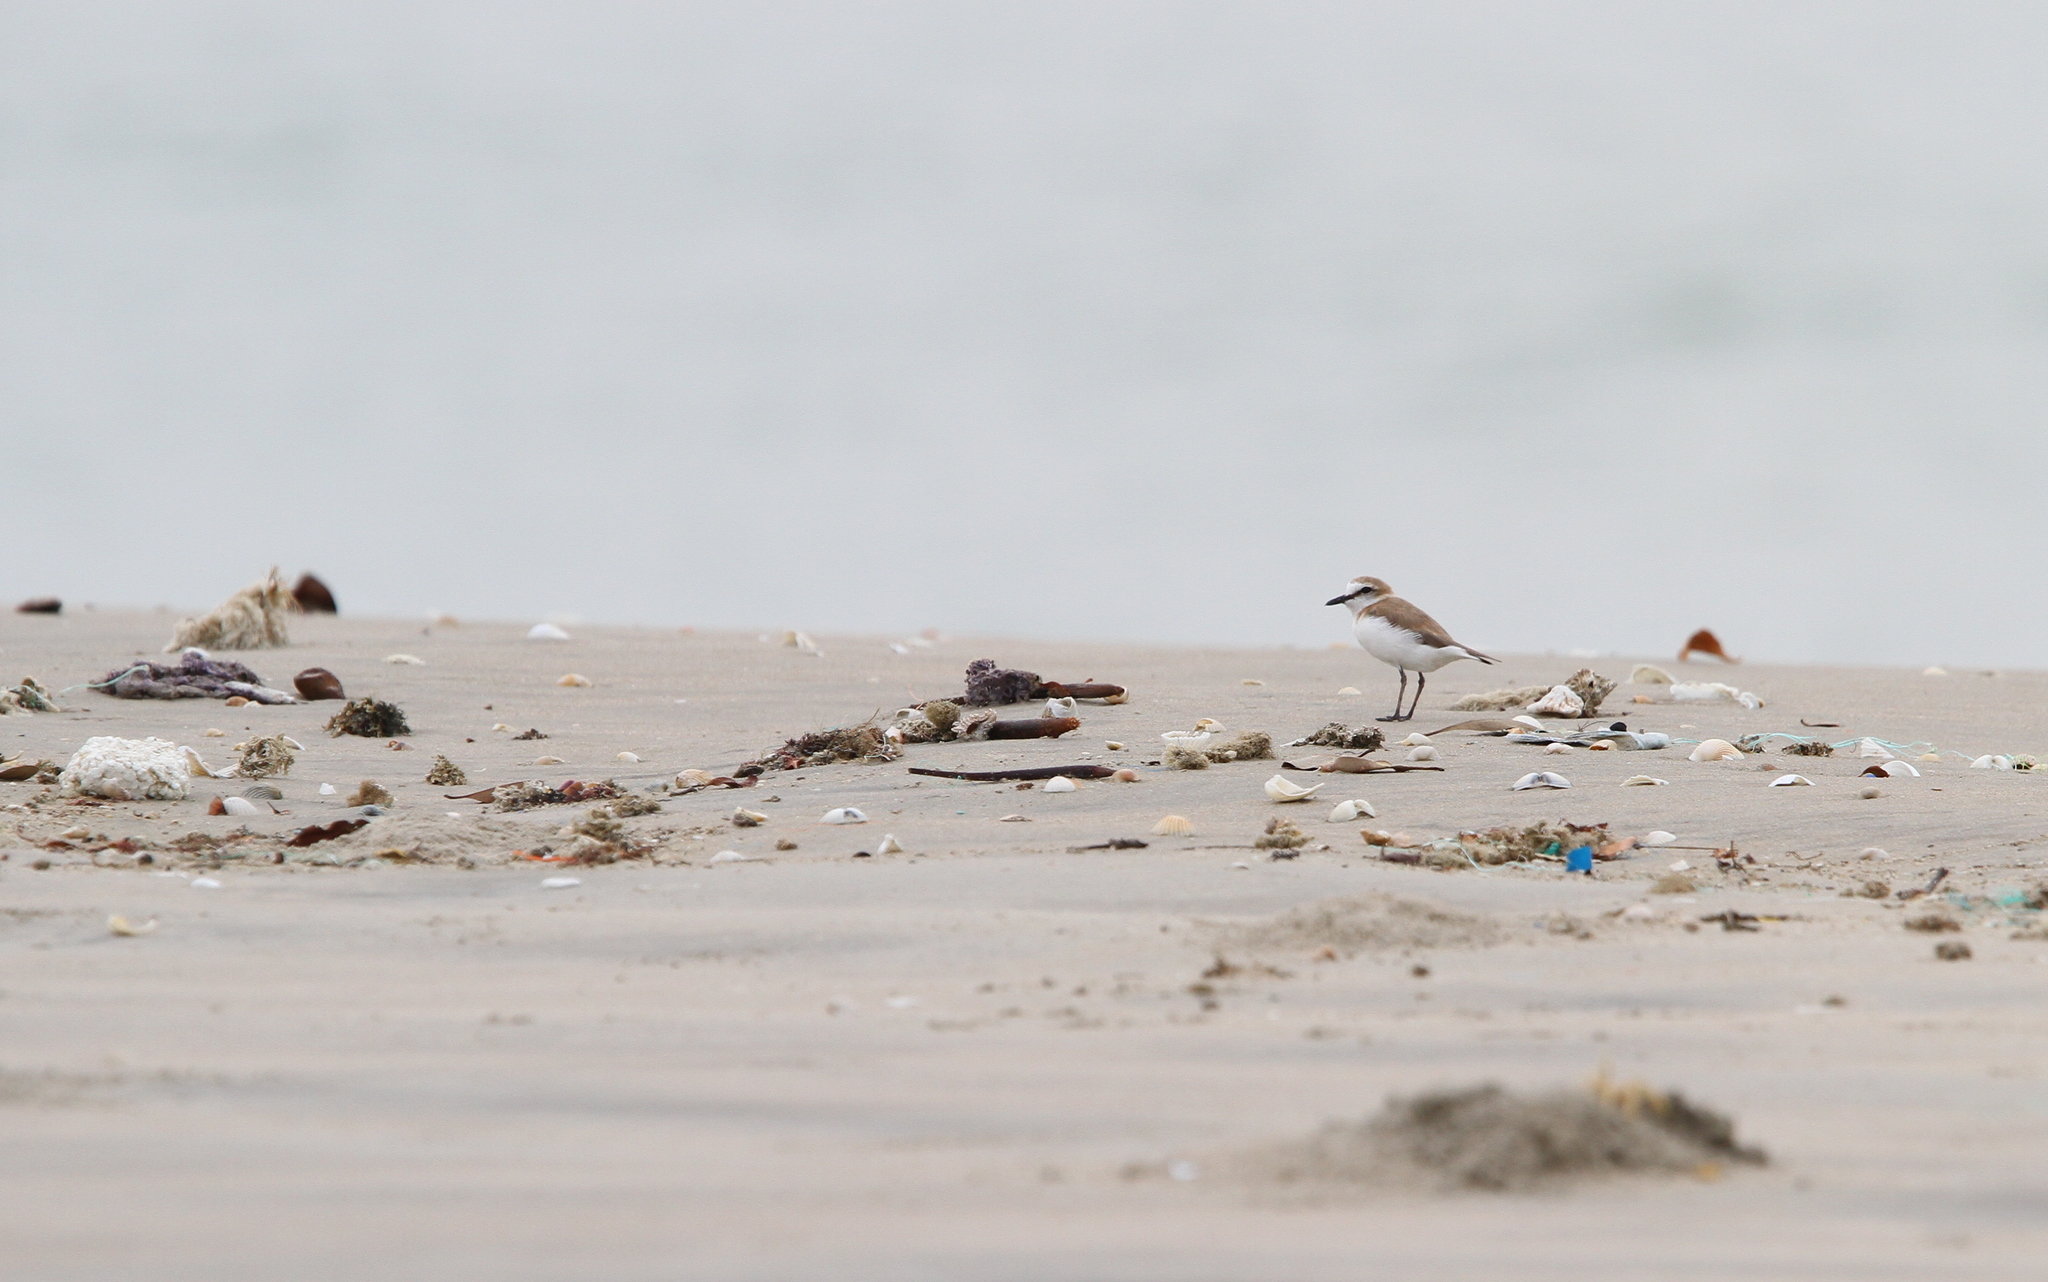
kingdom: Animalia
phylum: Chordata
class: Aves
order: Charadriiformes
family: Charadriidae
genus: Anarhynchus
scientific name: Anarhynchus
